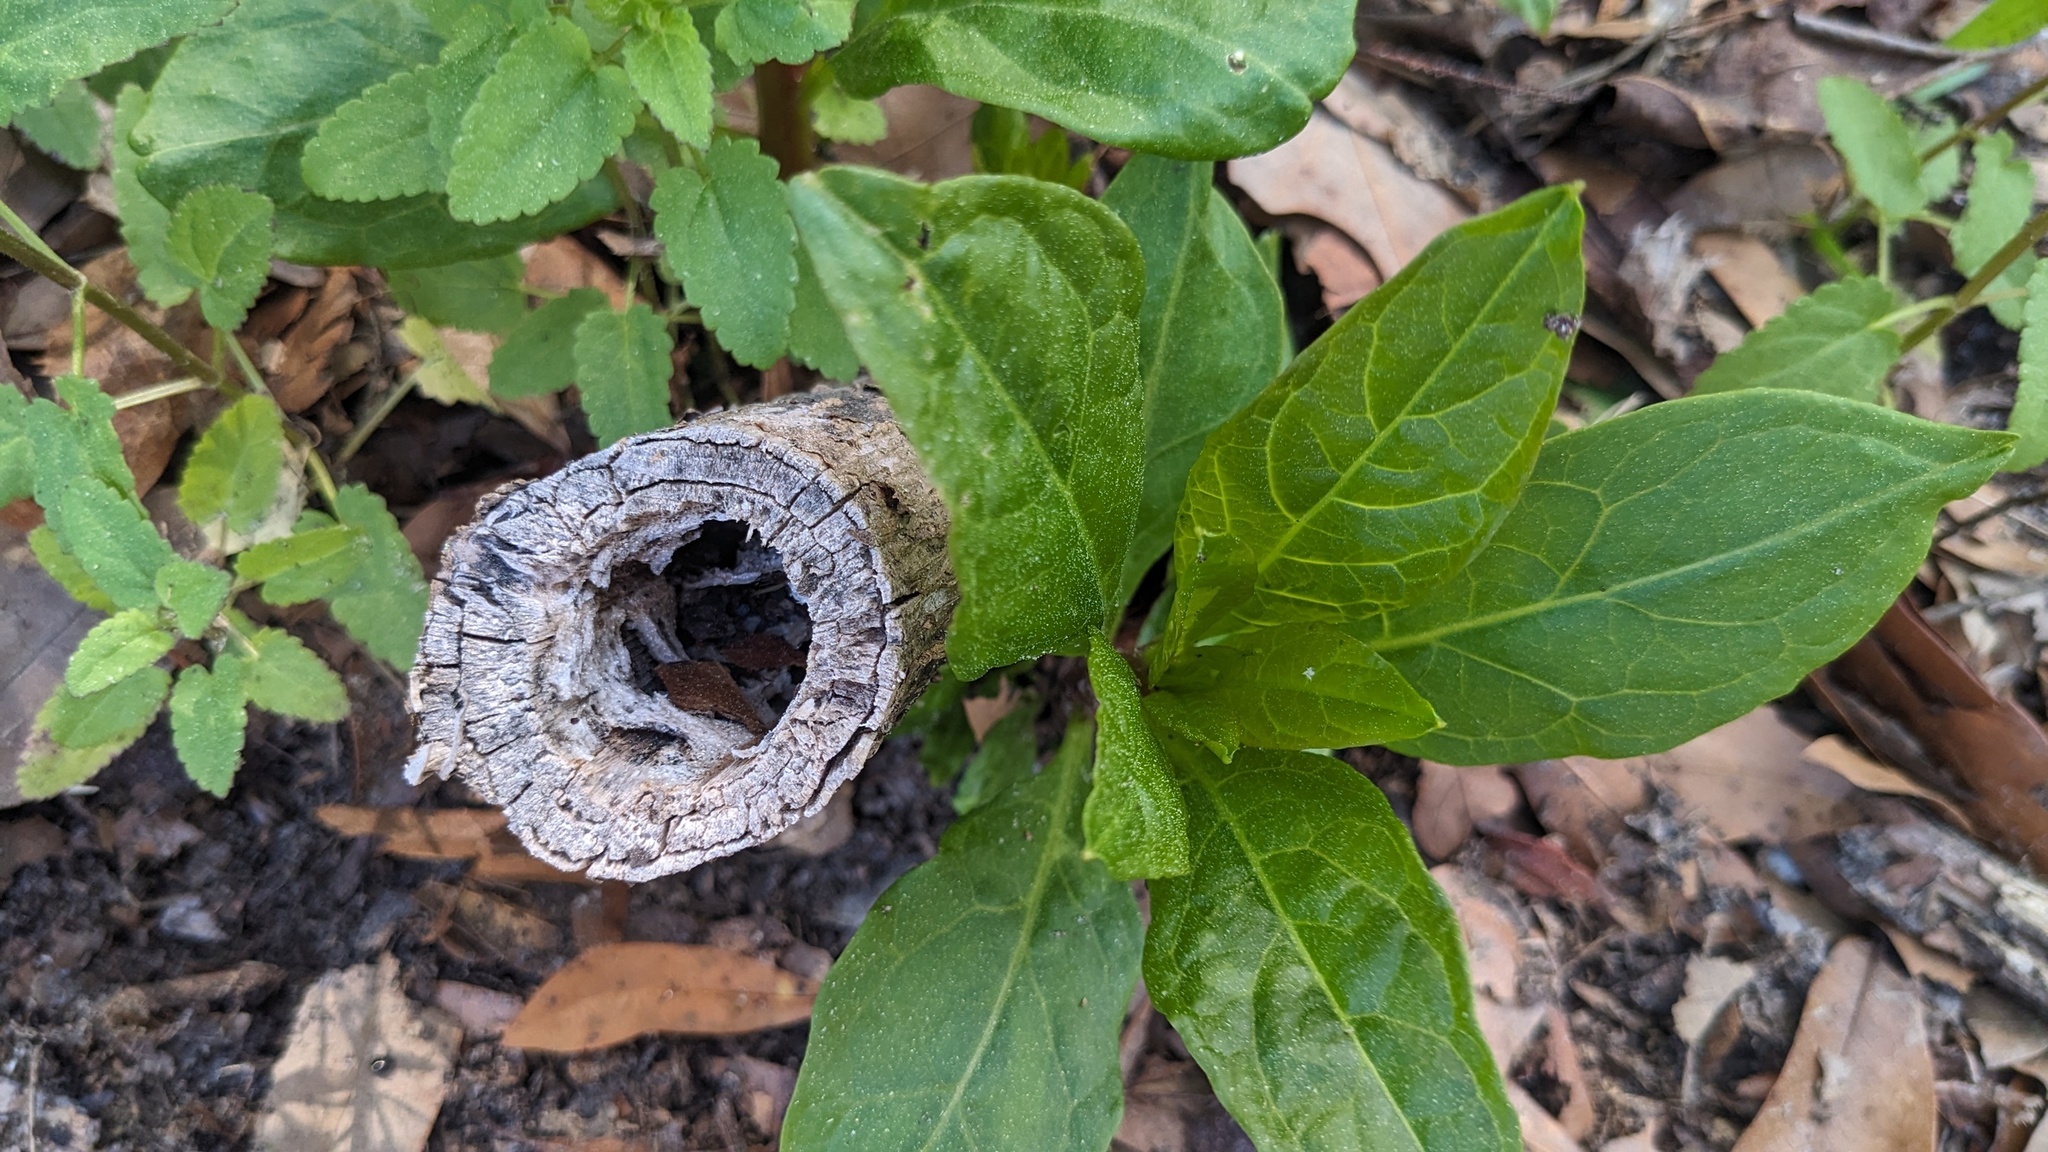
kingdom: Plantae
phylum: Tracheophyta
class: Magnoliopsida
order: Caryophyllales
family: Phytolaccaceae
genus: Phytolacca
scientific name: Phytolacca americana
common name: American pokeweed
